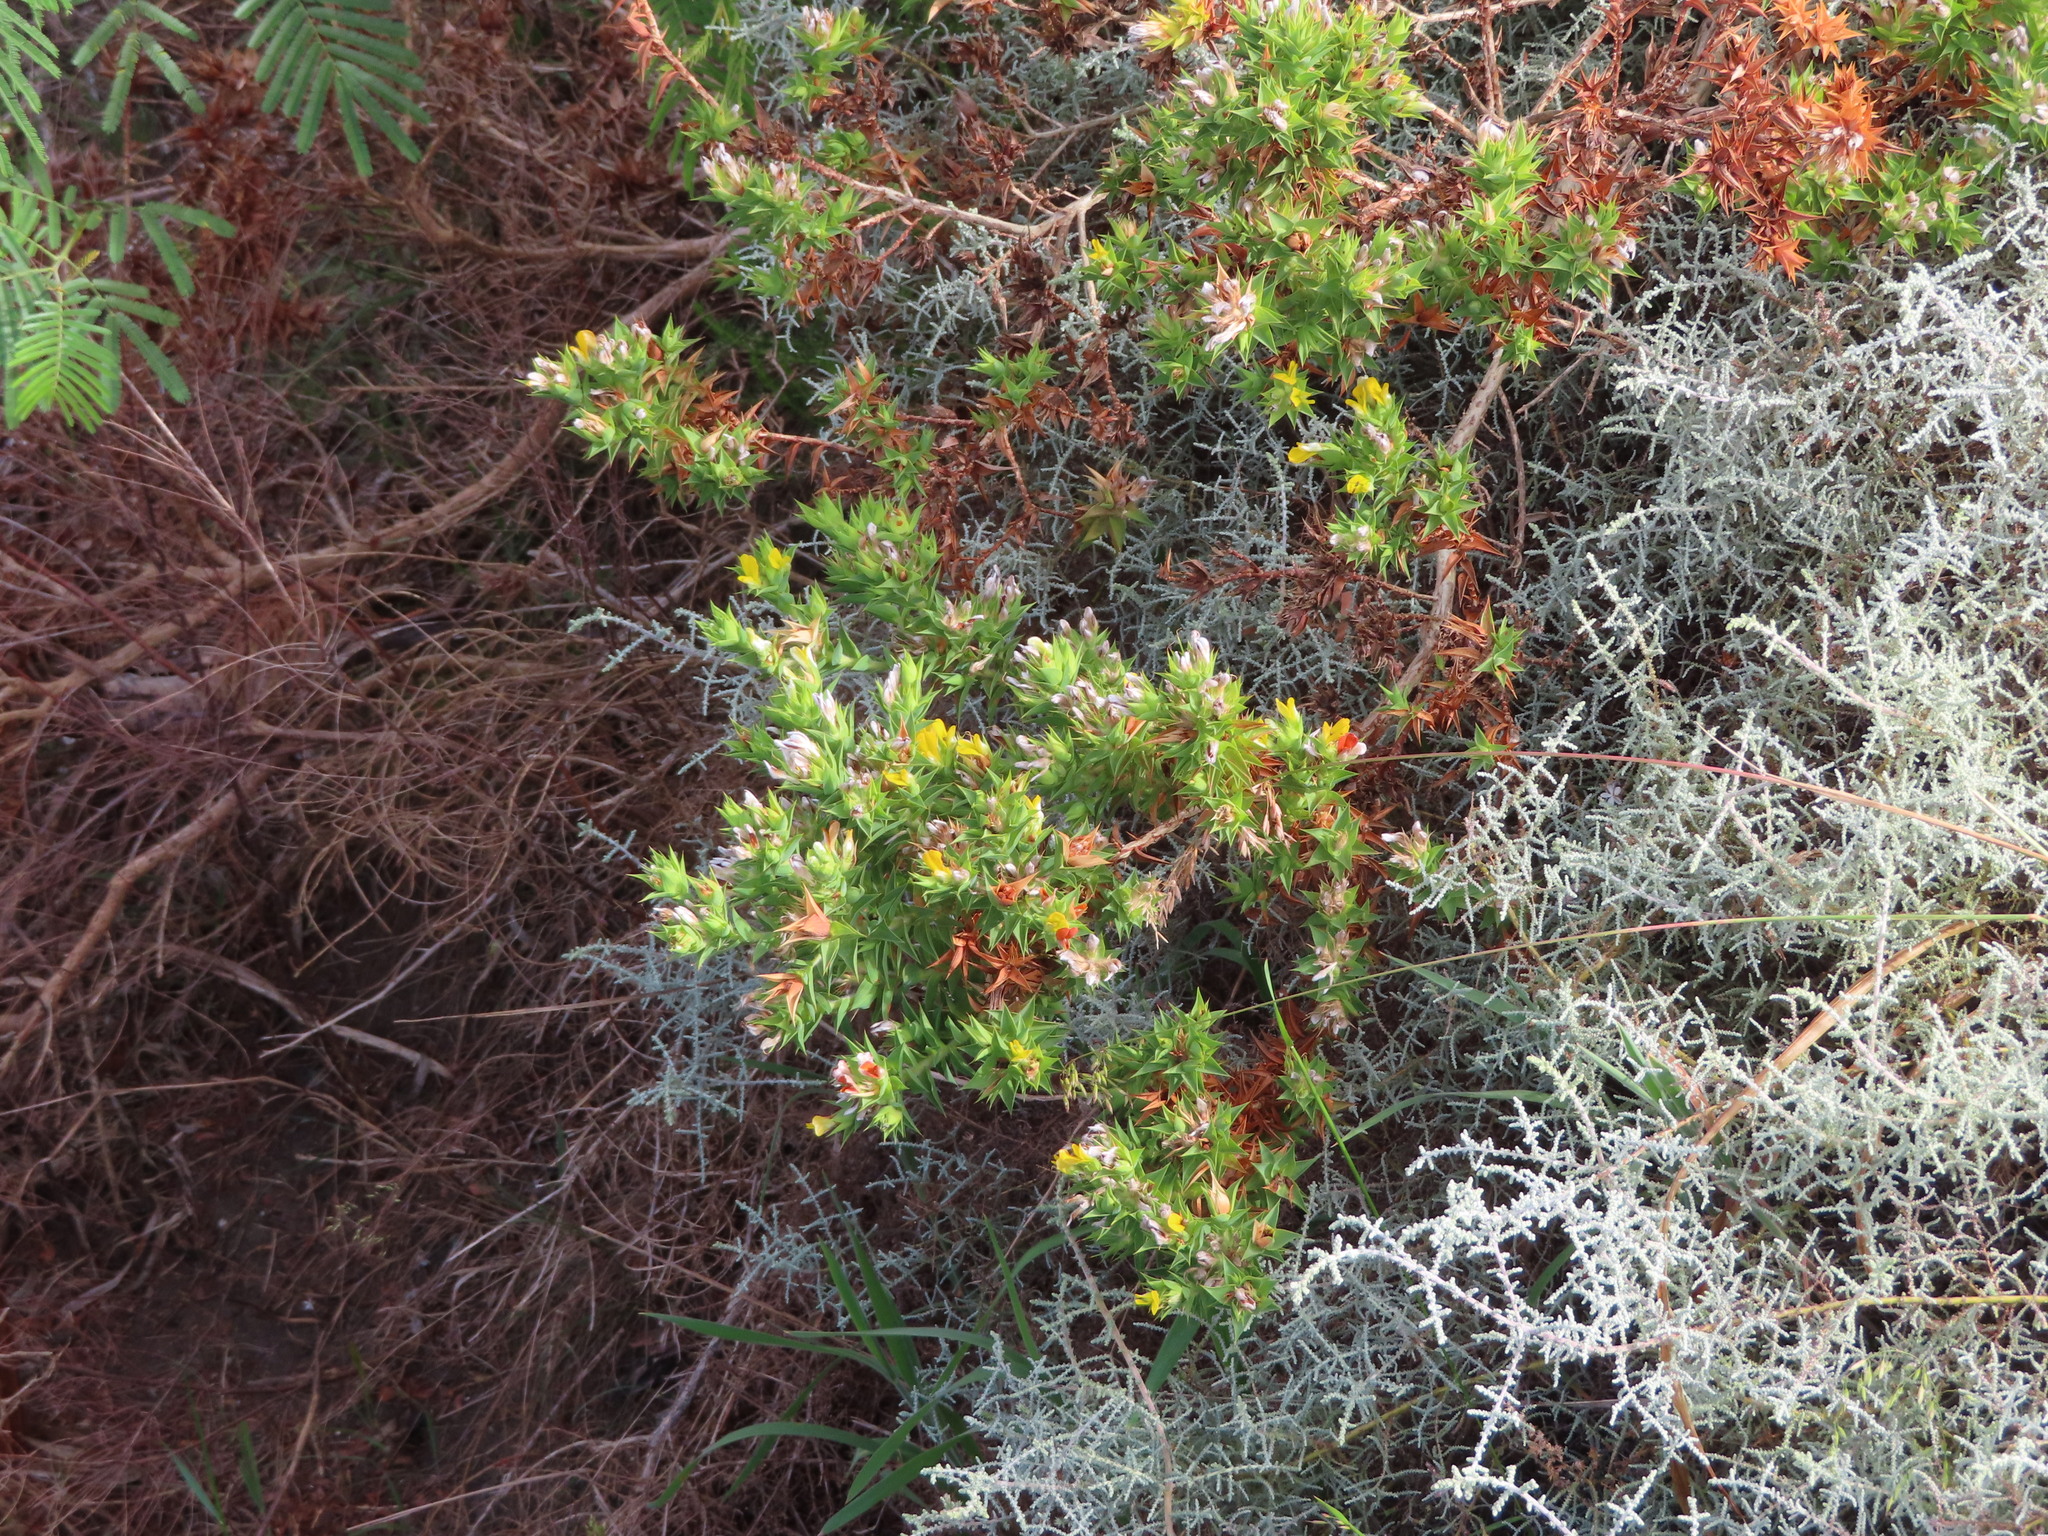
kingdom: Plantae
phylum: Tracheophyta
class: Magnoliopsida
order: Fabales
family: Fabaceae
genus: Aspalathus
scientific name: Aspalathus cordata
